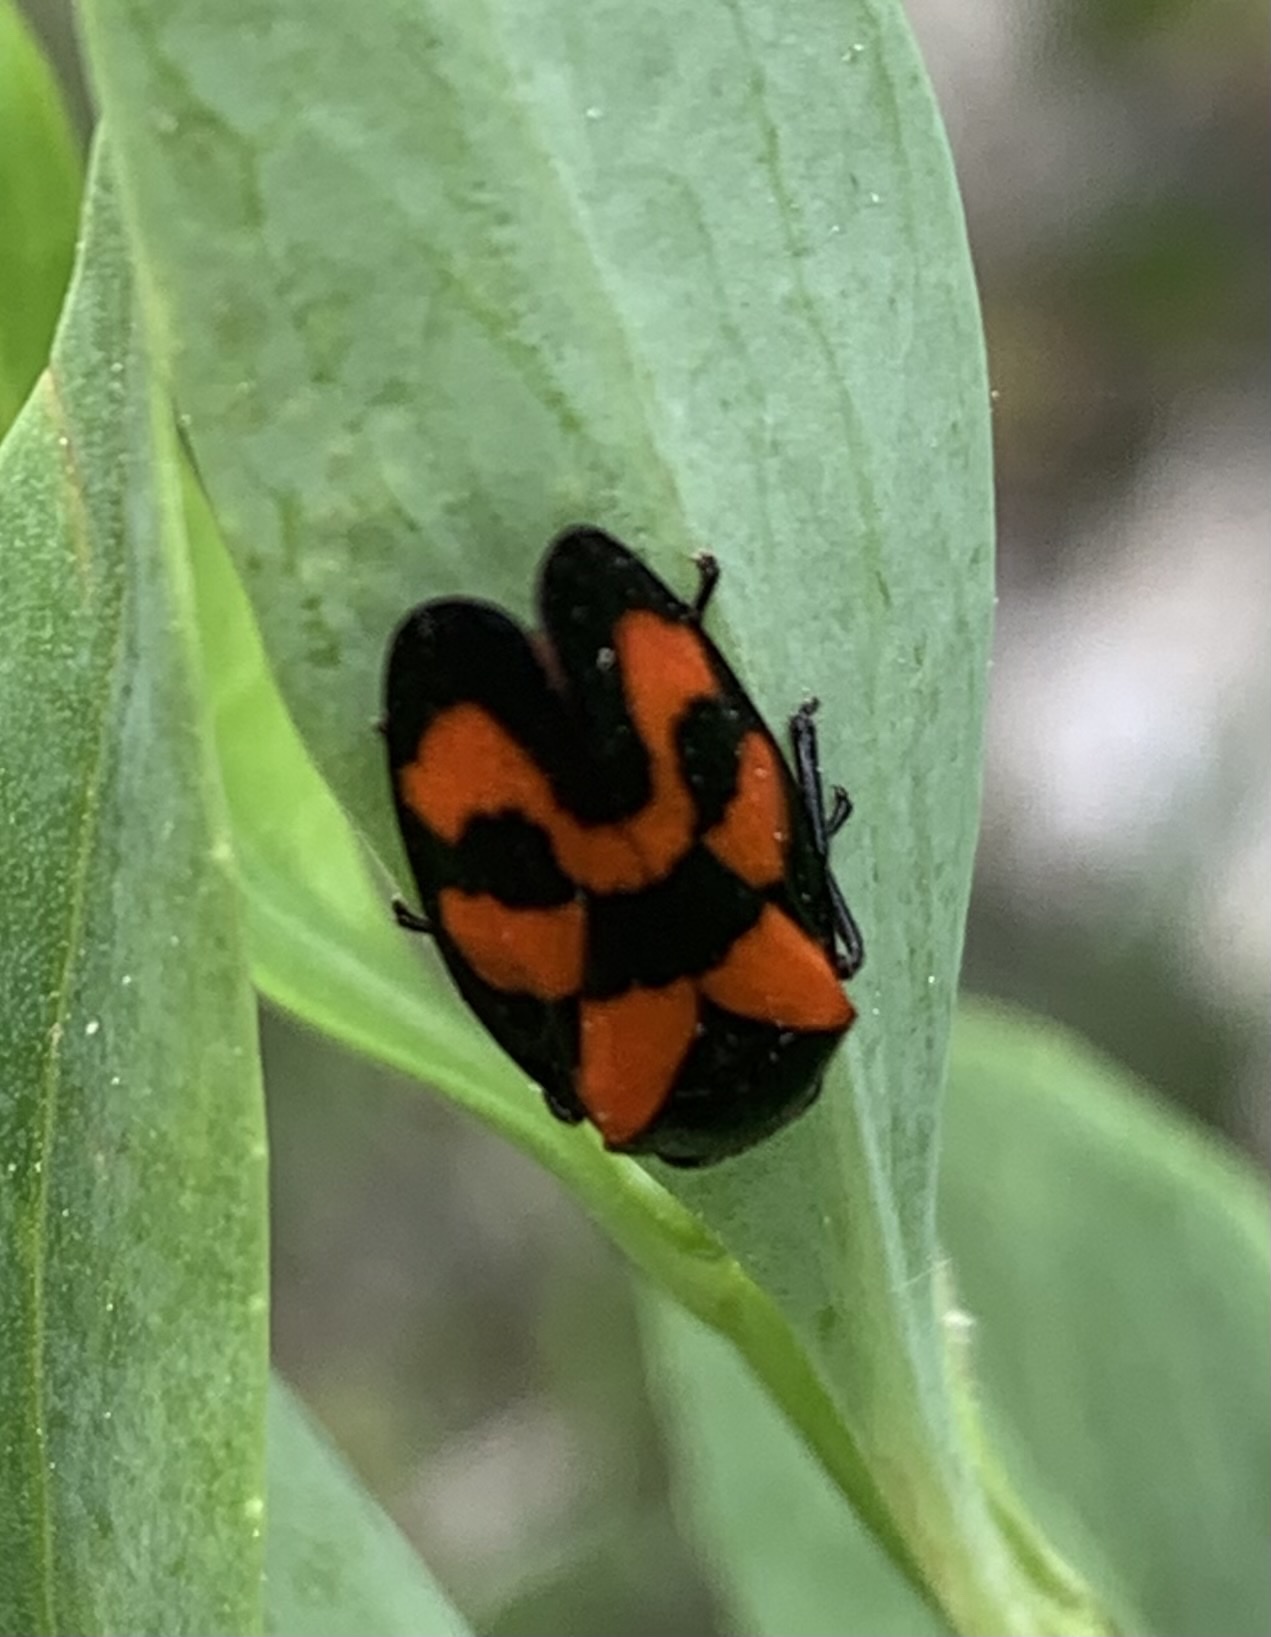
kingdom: Animalia
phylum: Arthropoda
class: Insecta
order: Hemiptera
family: Cercopidae
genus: Cercopis
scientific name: Cercopis vulnerata
